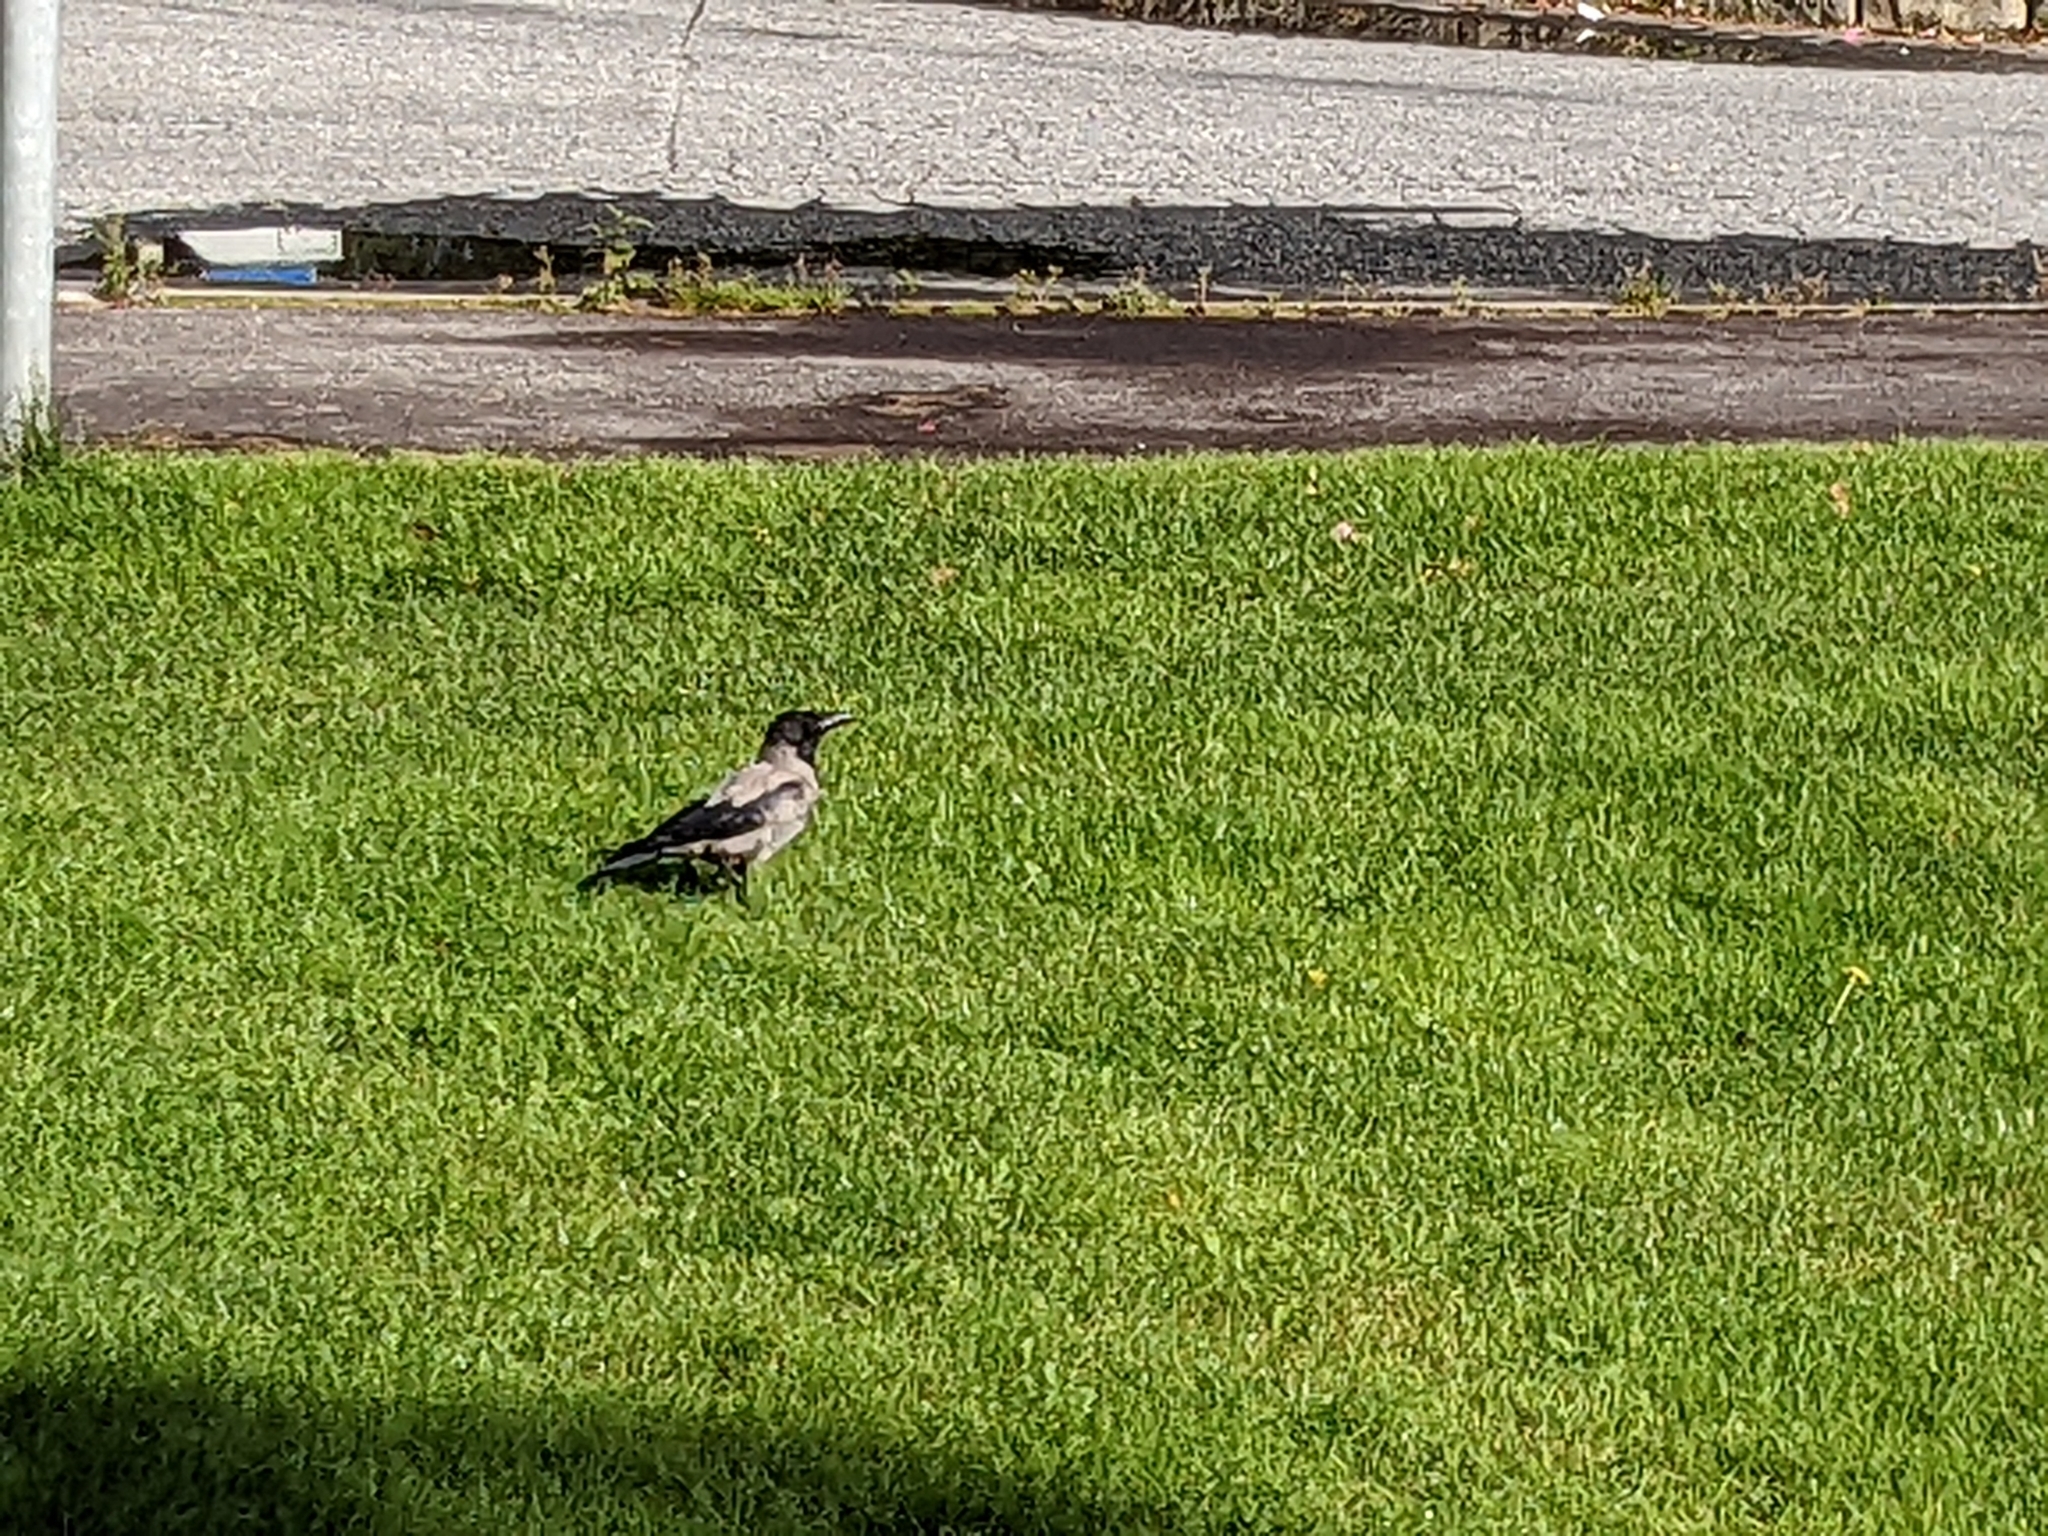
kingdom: Animalia
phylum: Chordata
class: Aves
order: Passeriformes
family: Corvidae
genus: Corvus
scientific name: Corvus cornix
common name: Hooded crow
